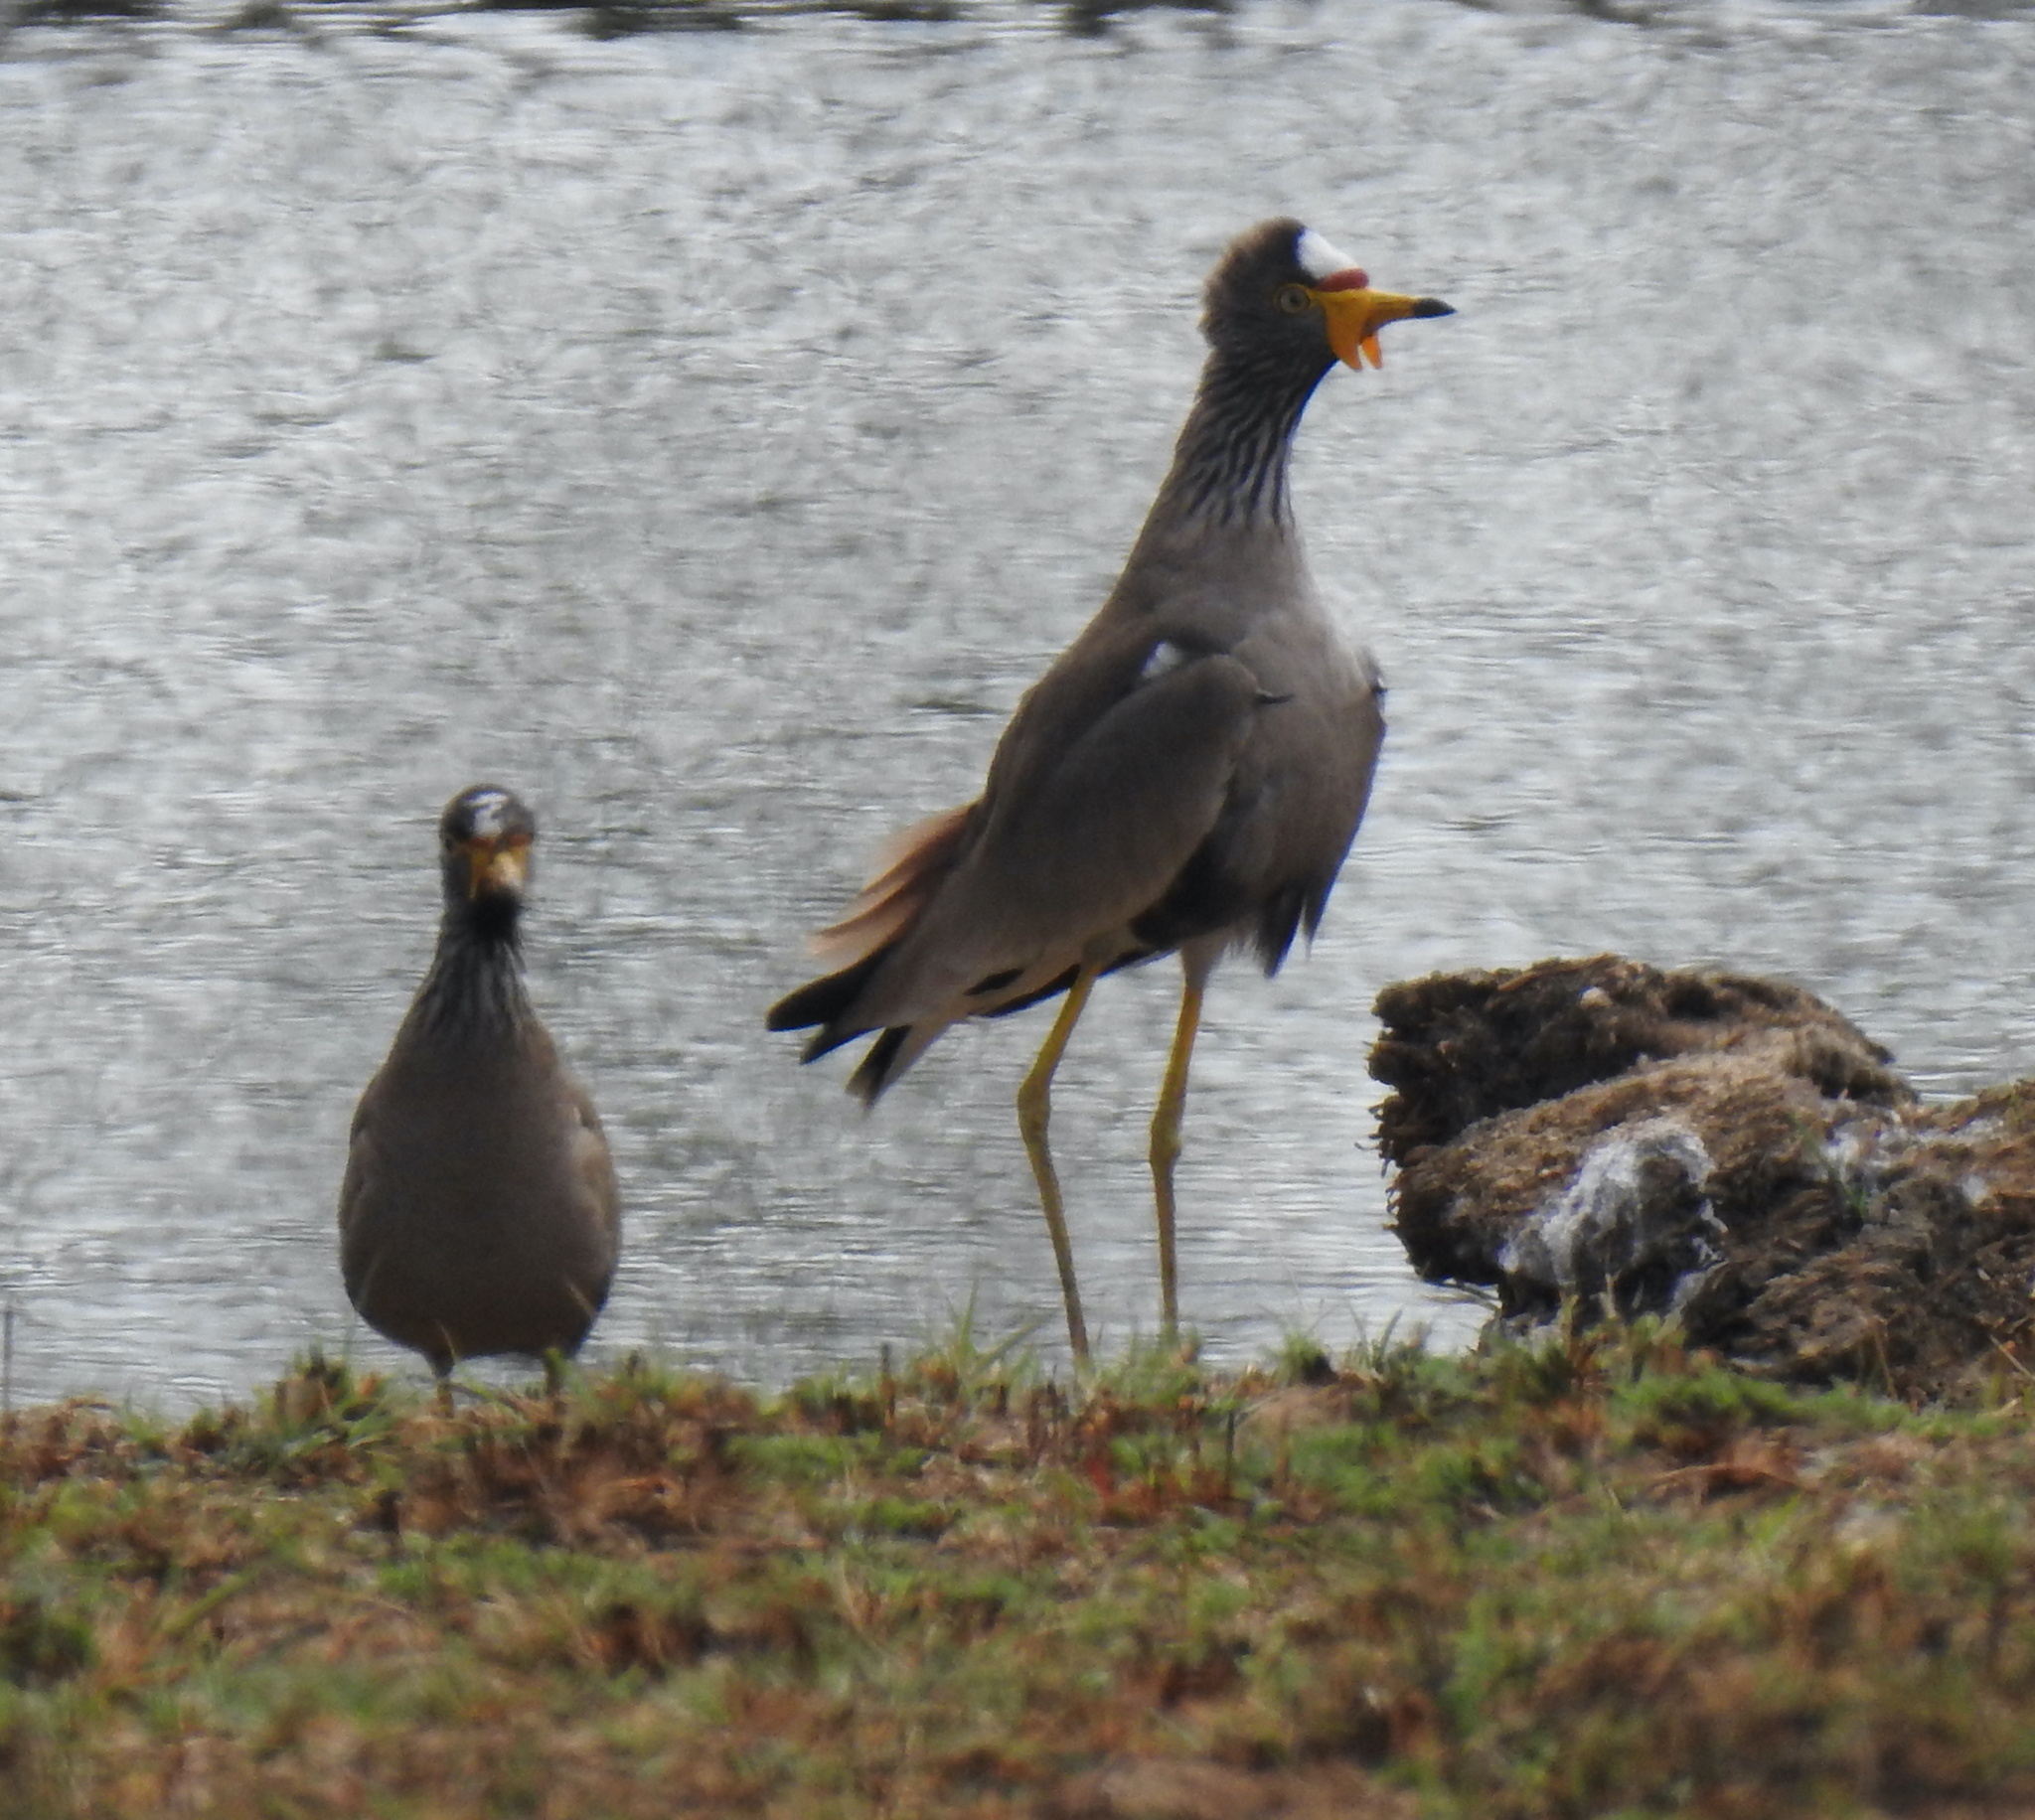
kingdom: Animalia
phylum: Chordata
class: Aves
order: Charadriiformes
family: Charadriidae
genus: Vanellus
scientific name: Vanellus senegallus
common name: African wattled lapwing
